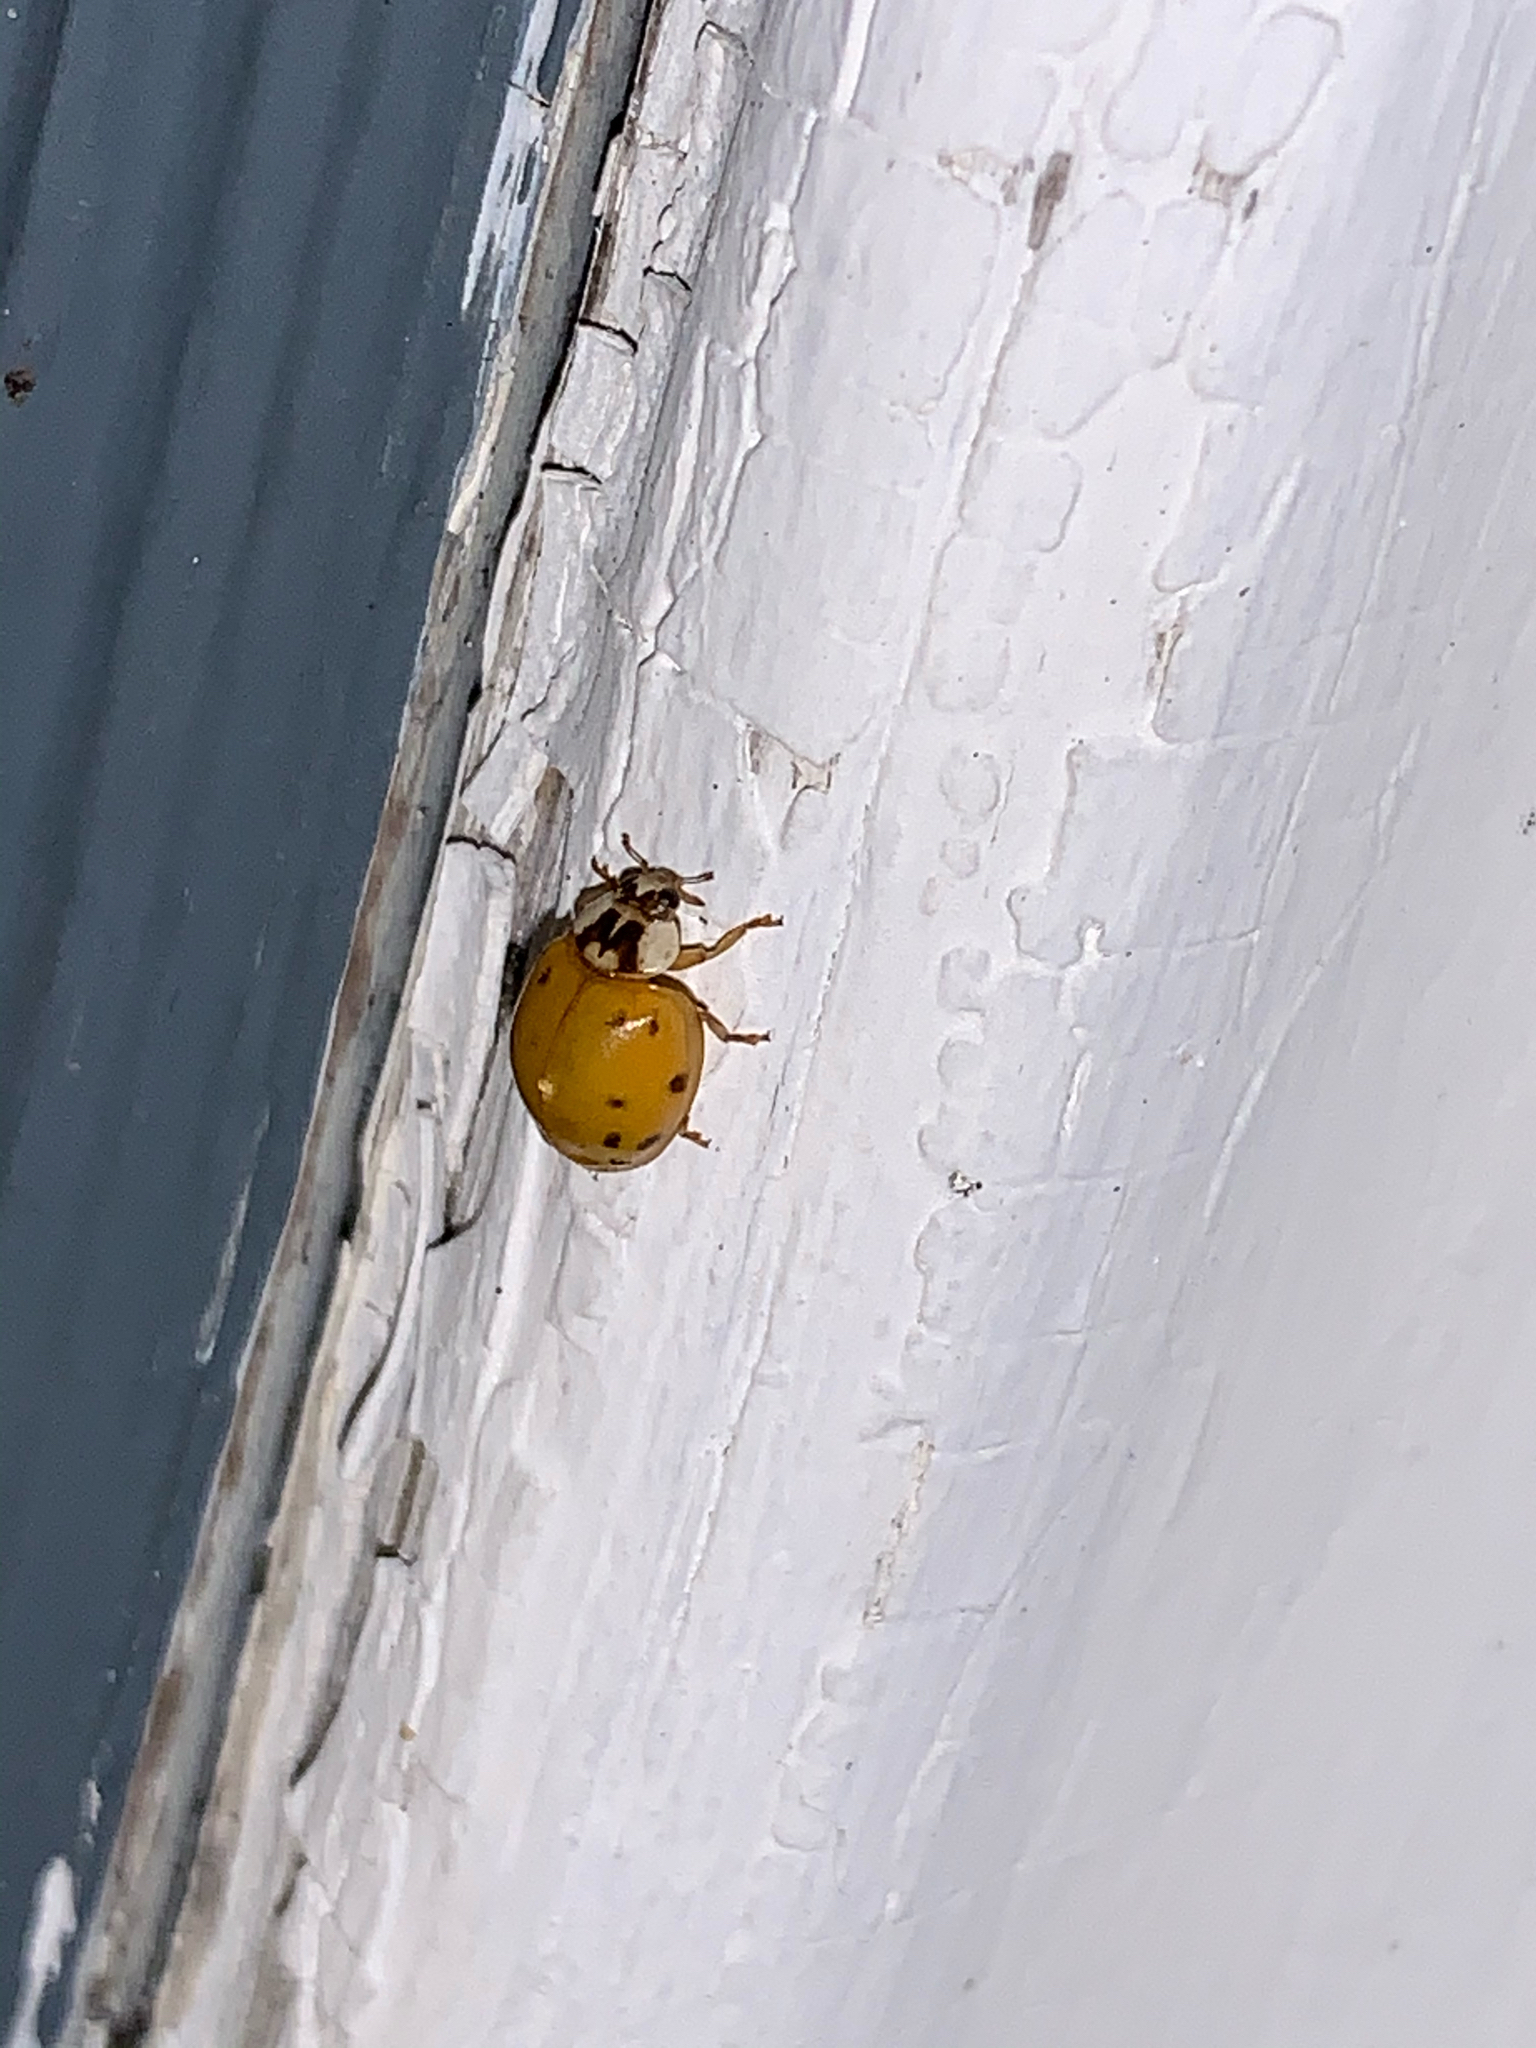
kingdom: Animalia
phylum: Arthropoda
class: Insecta
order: Coleoptera
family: Coccinellidae
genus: Harmonia
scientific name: Harmonia axyridis
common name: Harlequin ladybird
